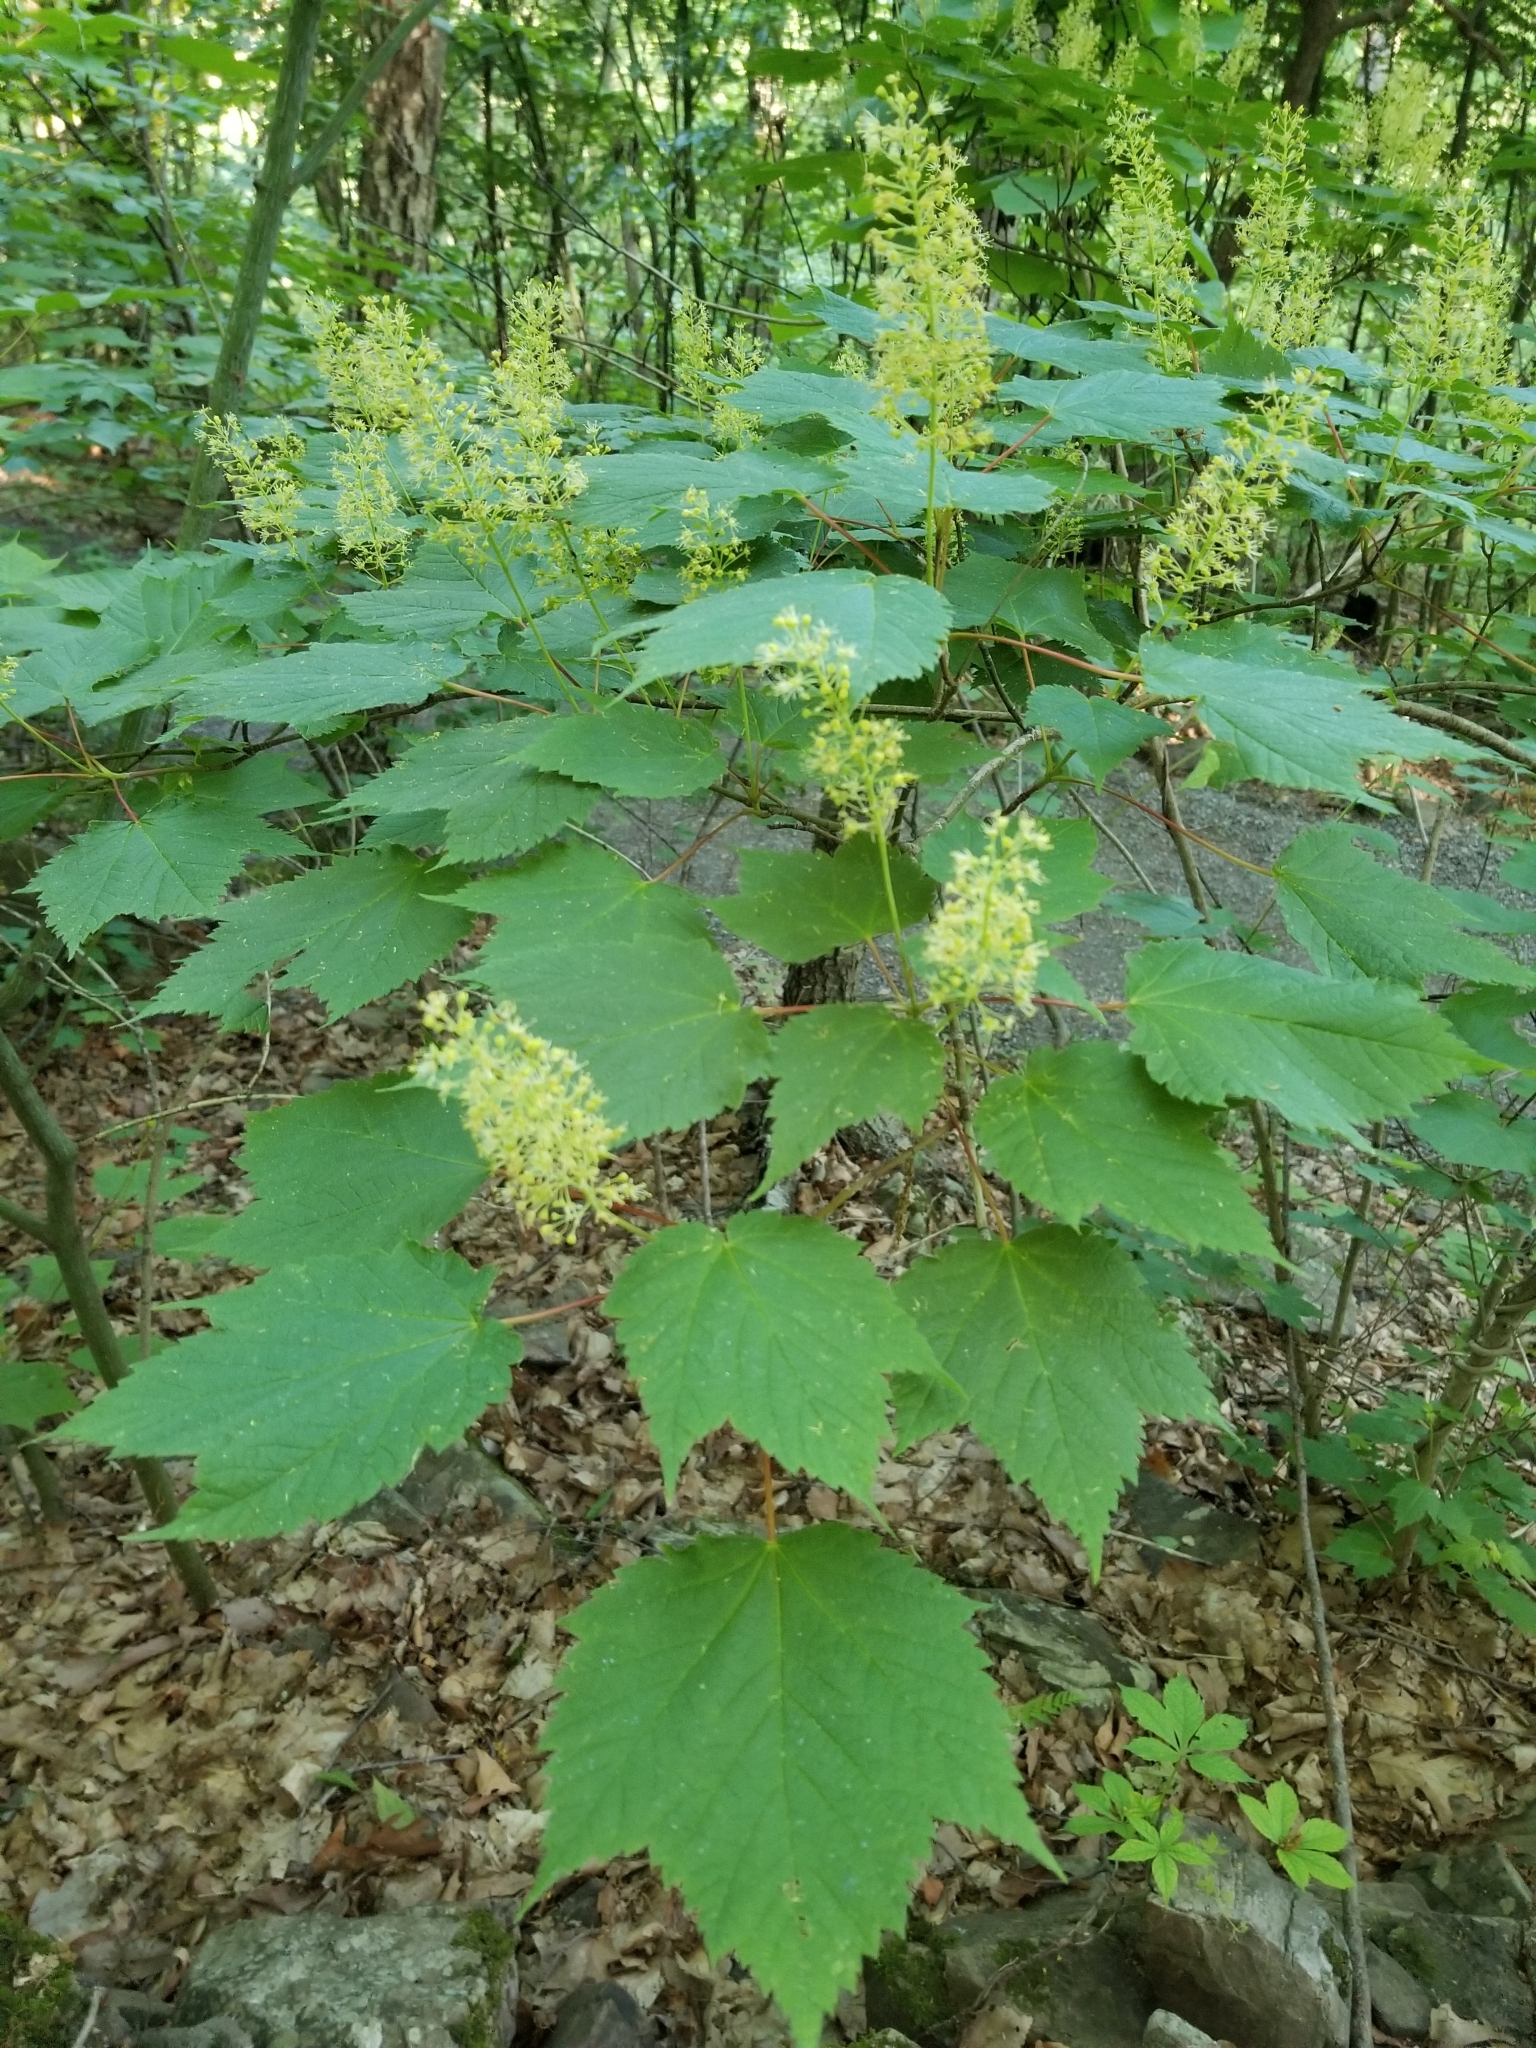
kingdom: Plantae
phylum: Tracheophyta
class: Magnoliopsida
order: Sapindales
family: Sapindaceae
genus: Acer
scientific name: Acer spicatum
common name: Mountain maple
